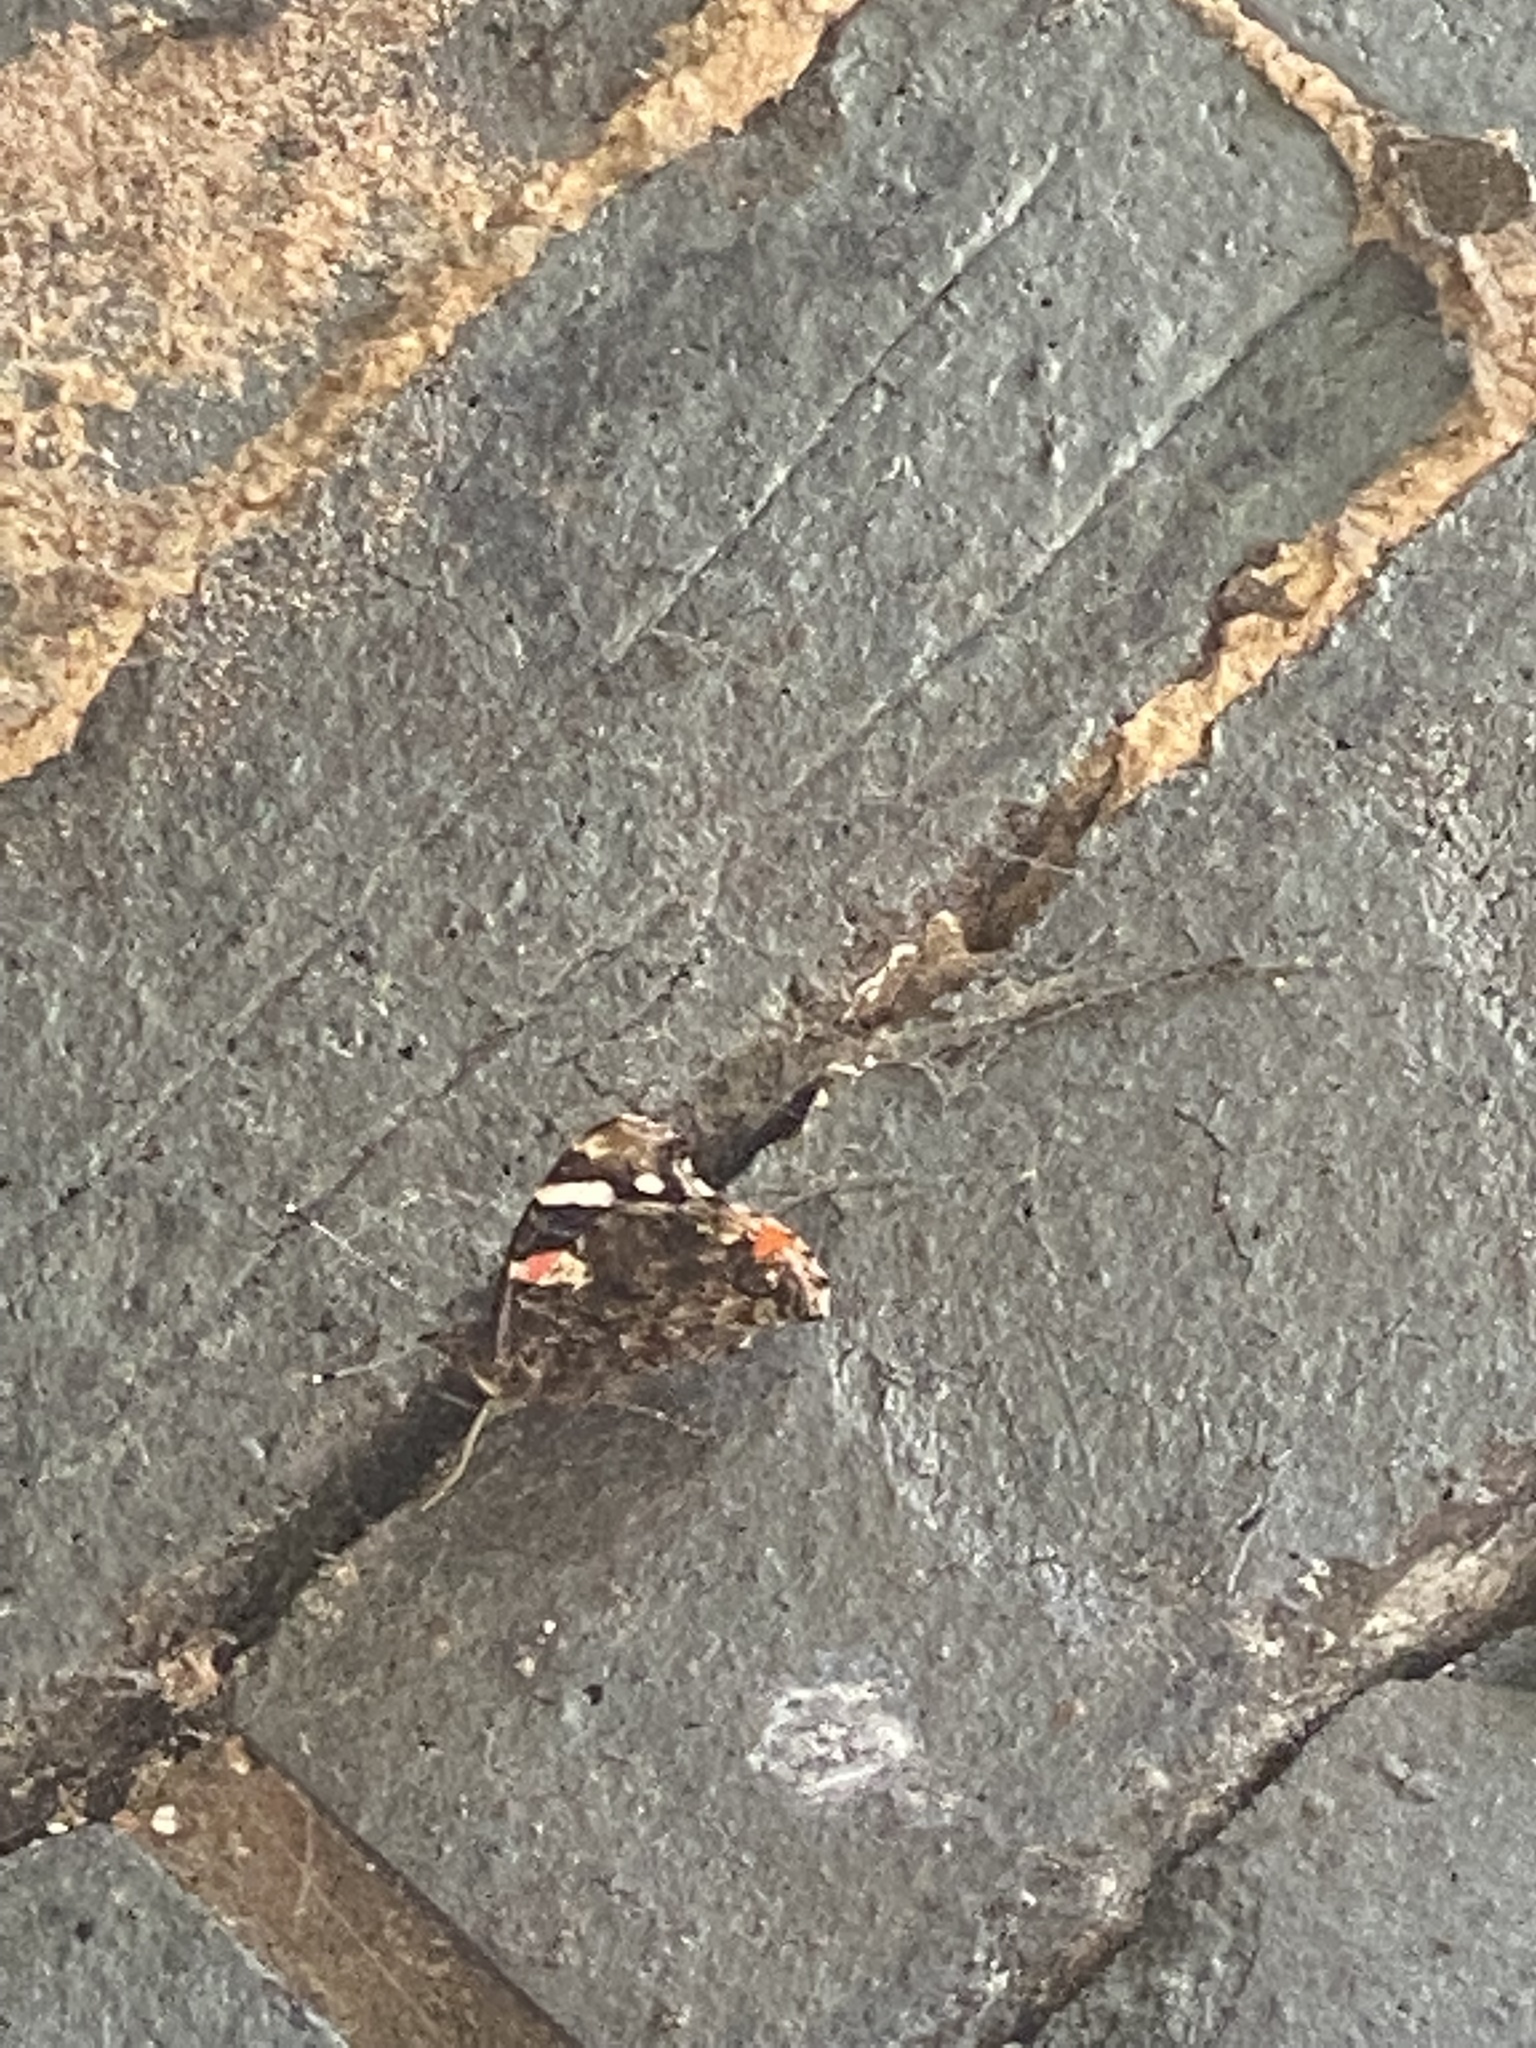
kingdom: Animalia
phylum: Arthropoda
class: Insecta
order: Lepidoptera
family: Nymphalidae
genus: Vanessa
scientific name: Vanessa atalanta
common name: Red admiral
